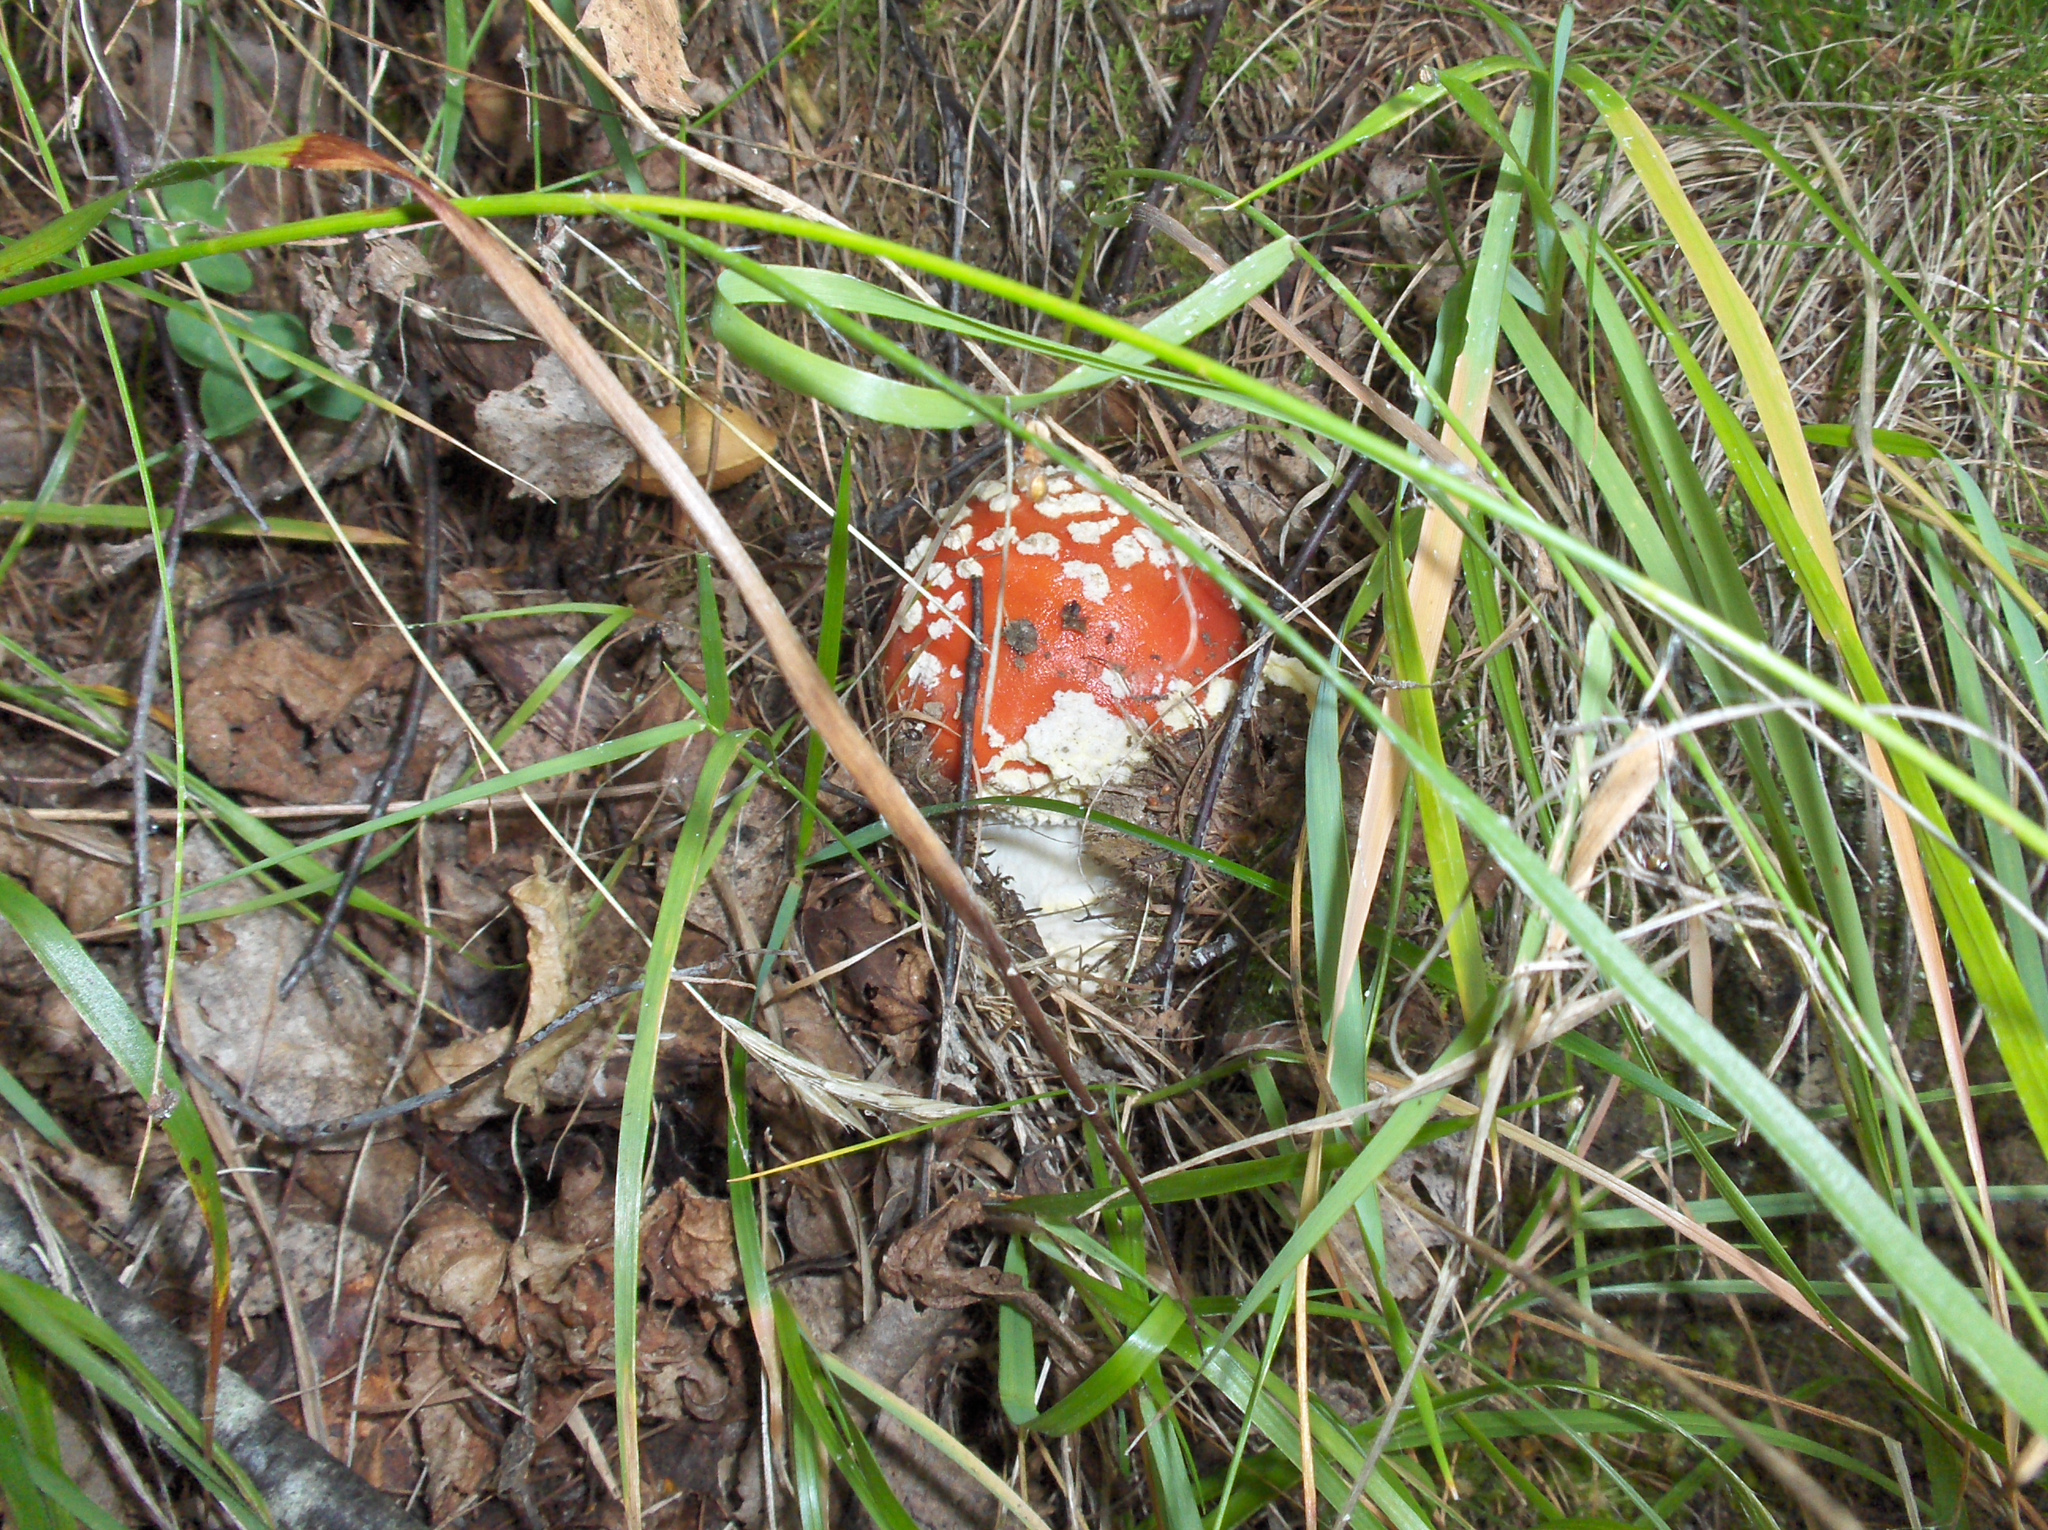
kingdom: Fungi
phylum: Basidiomycota
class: Agaricomycetes
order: Agaricales
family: Amanitaceae
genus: Amanita
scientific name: Amanita muscaria
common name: Fly agaric
